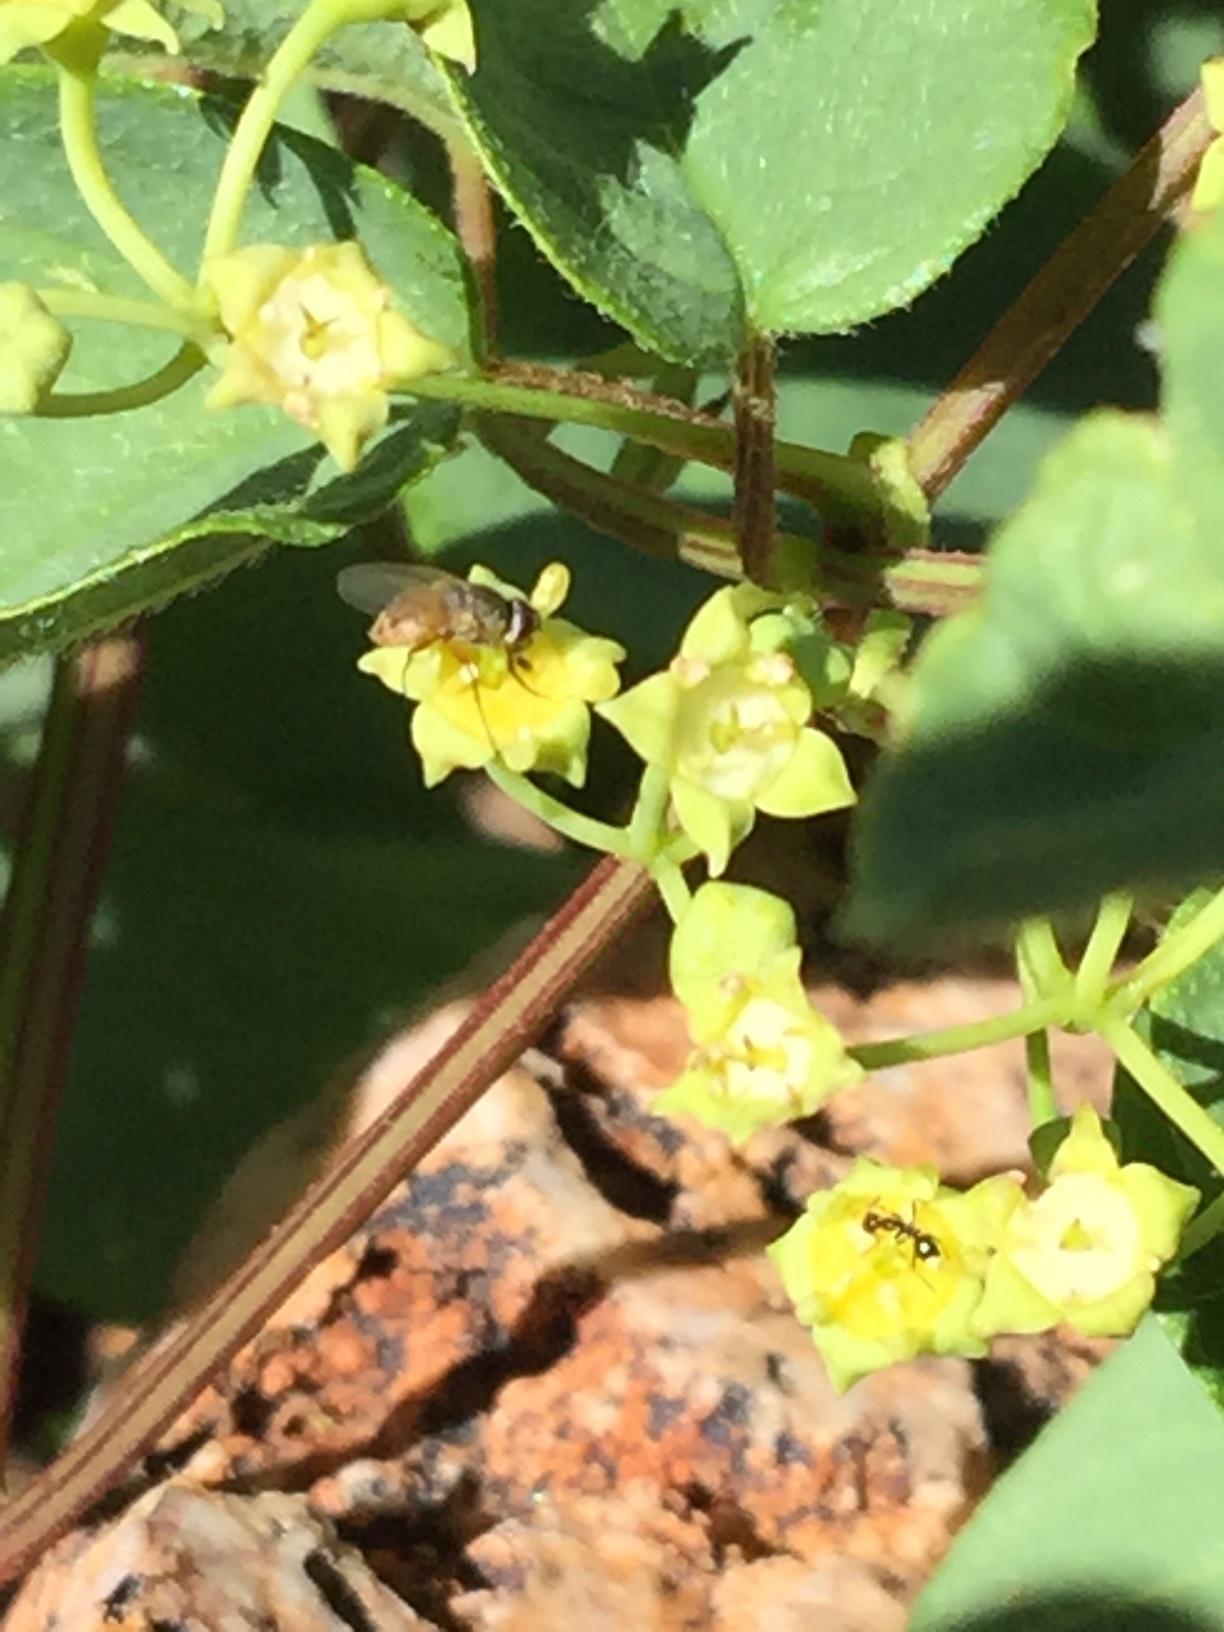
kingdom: Plantae
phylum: Tracheophyta
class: Magnoliopsida
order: Rosales
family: Rhamnaceae
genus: Helinus
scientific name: Helinus integrifolius
